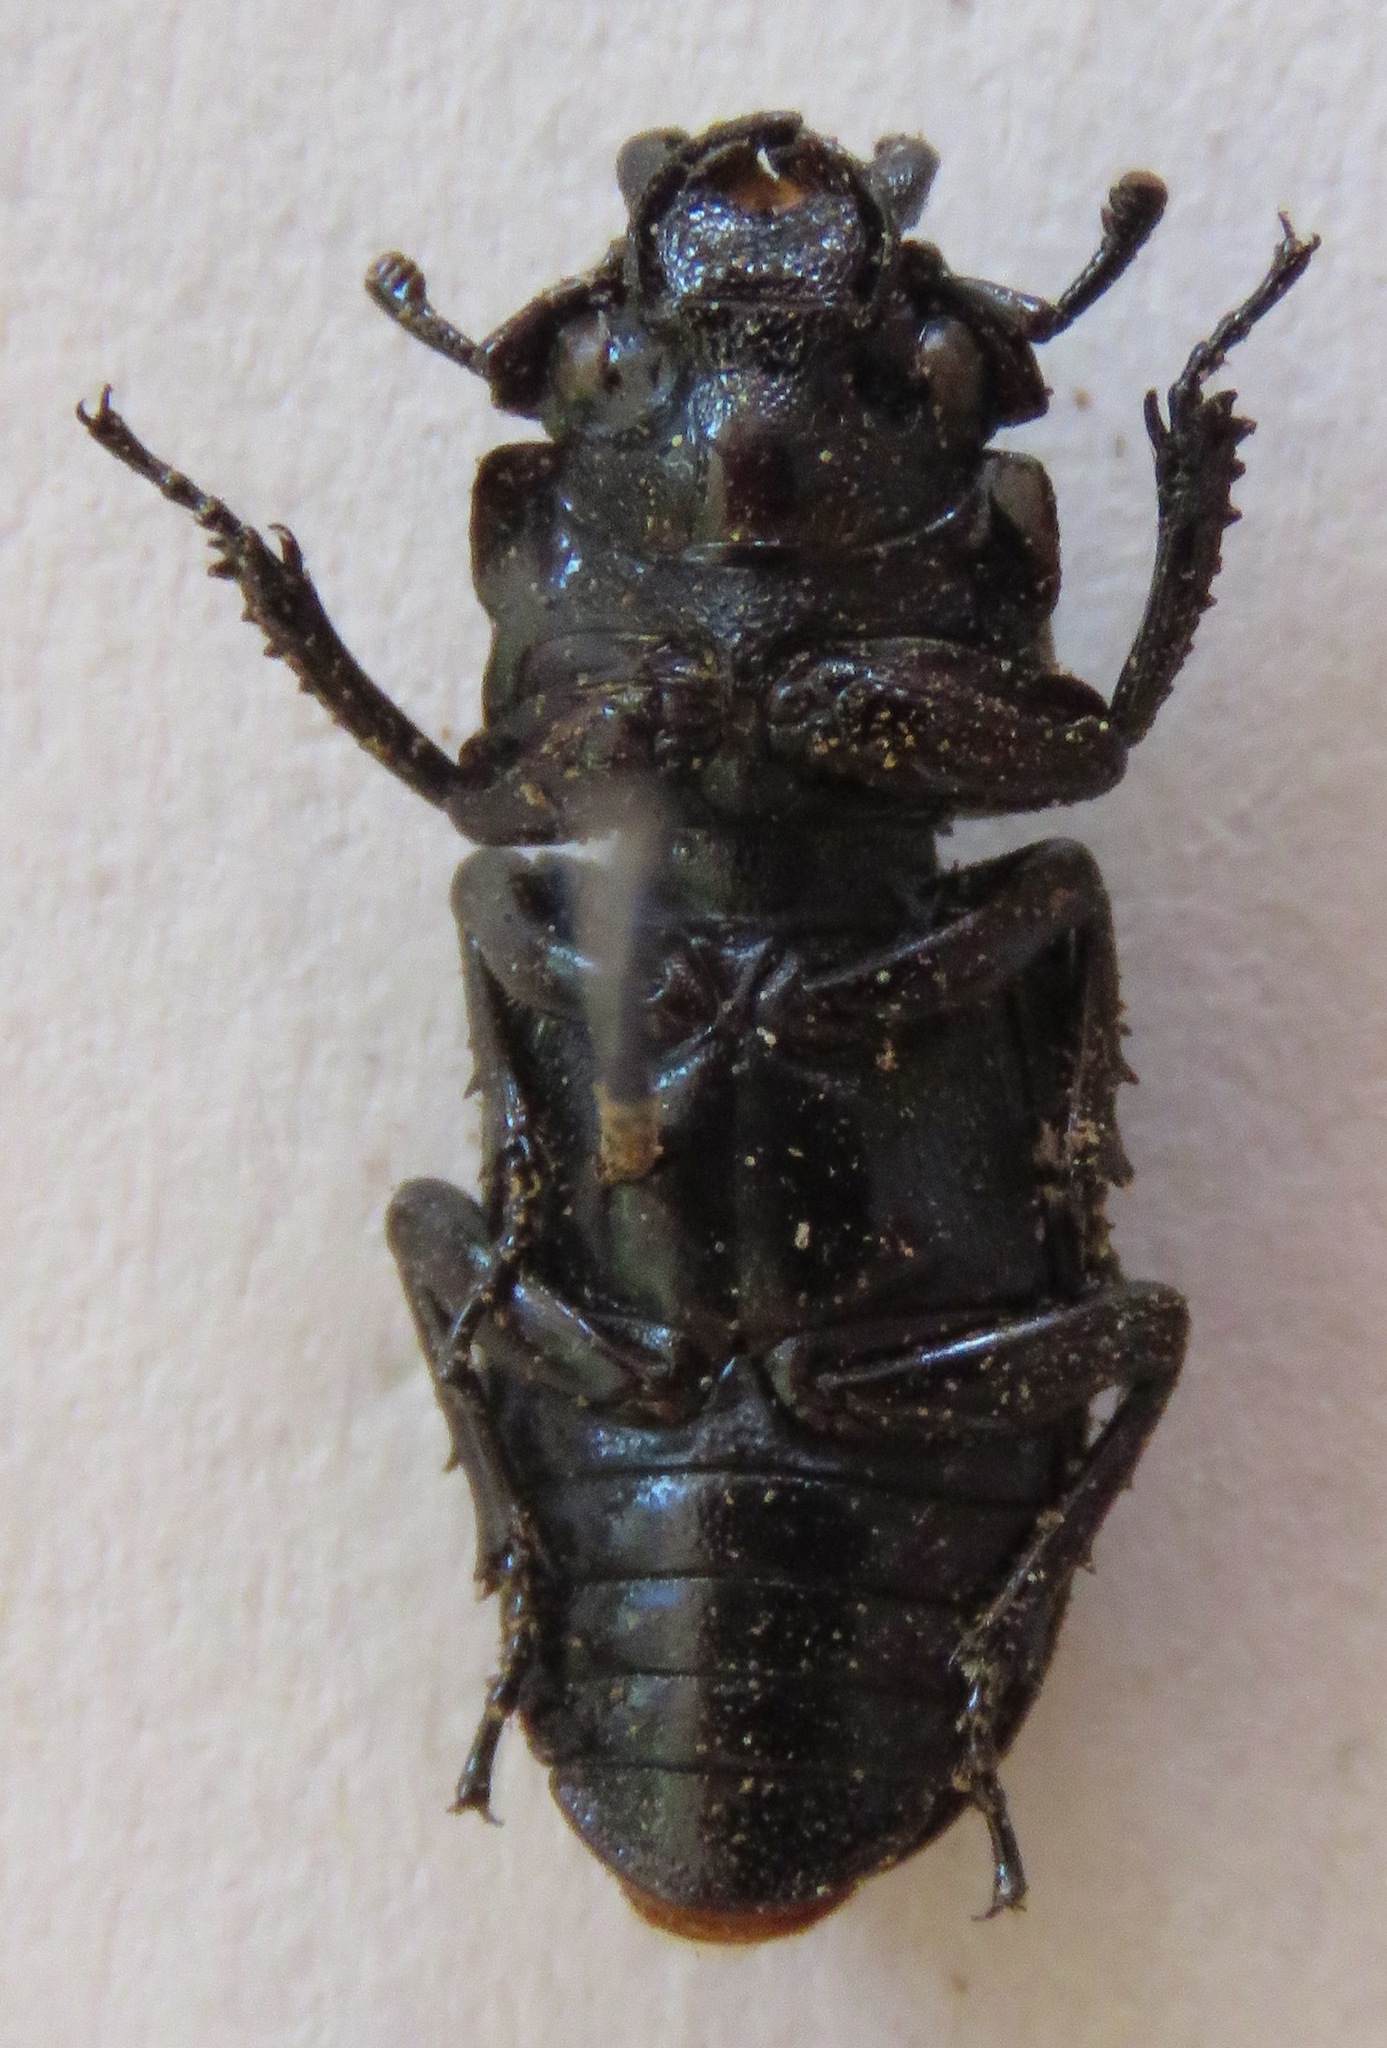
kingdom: Animalia
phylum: Arthropoda
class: Insecta
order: Coleoptera
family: Lucanidae
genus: Nigidius
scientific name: Nigidius elongatus
